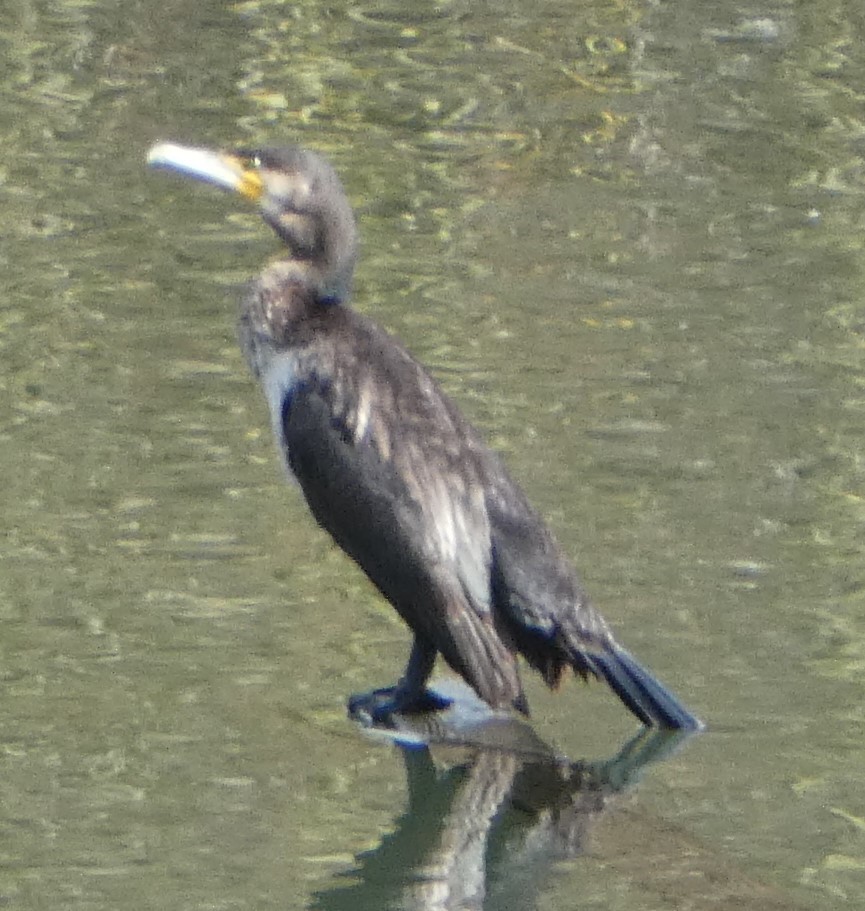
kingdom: Animalia
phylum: Chordata
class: Aves
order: Suliformes
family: Phalacrocoracidae
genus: Phalacrocorax
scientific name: Phalacrocorax carbo
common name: Great cormorant
